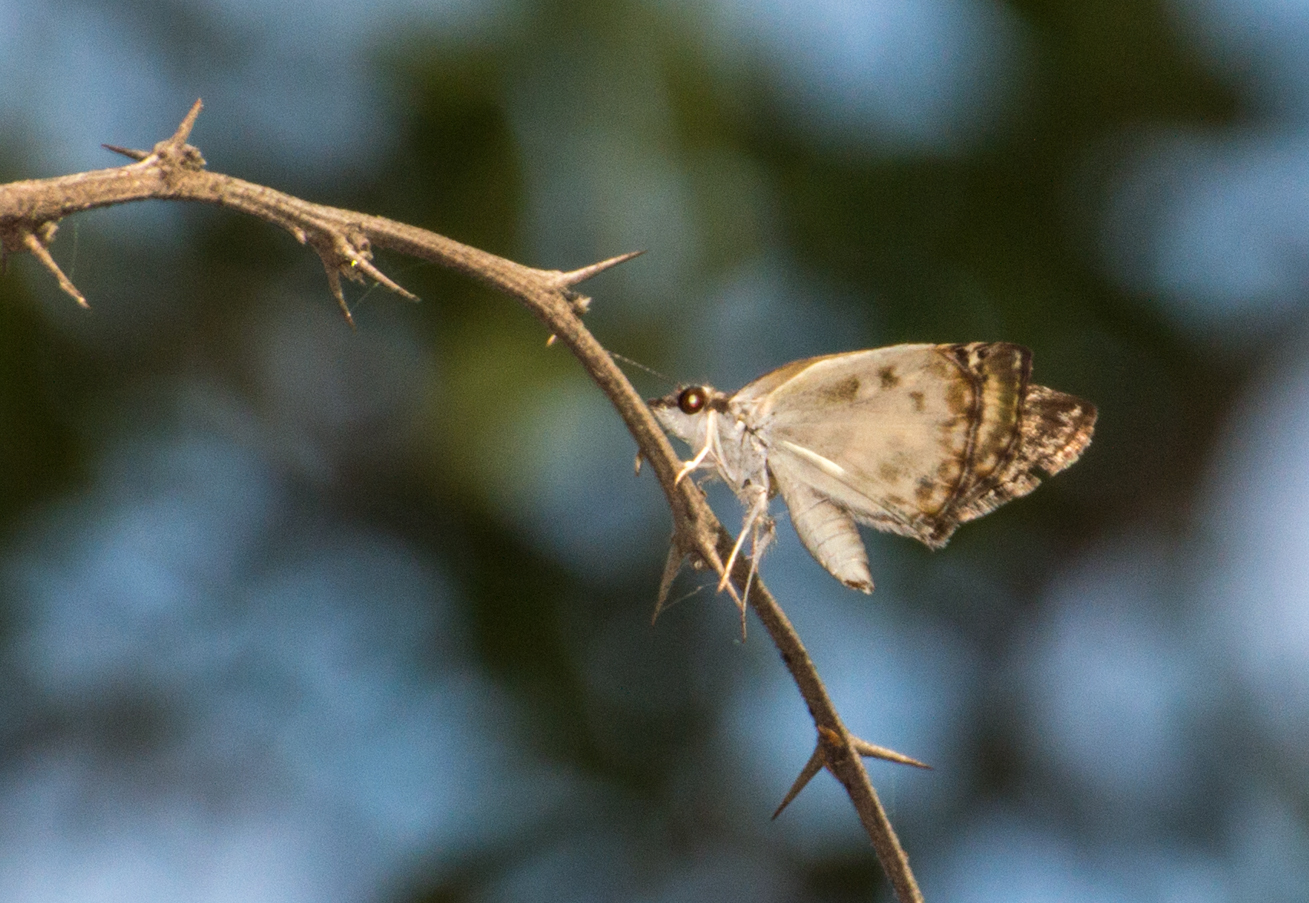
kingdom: Animalia
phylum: Arthropoda
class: Insecta
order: Lepidoptera
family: Hesperiidae
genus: Chiomara
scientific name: Chiomara asychis
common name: White-patterned skipper
